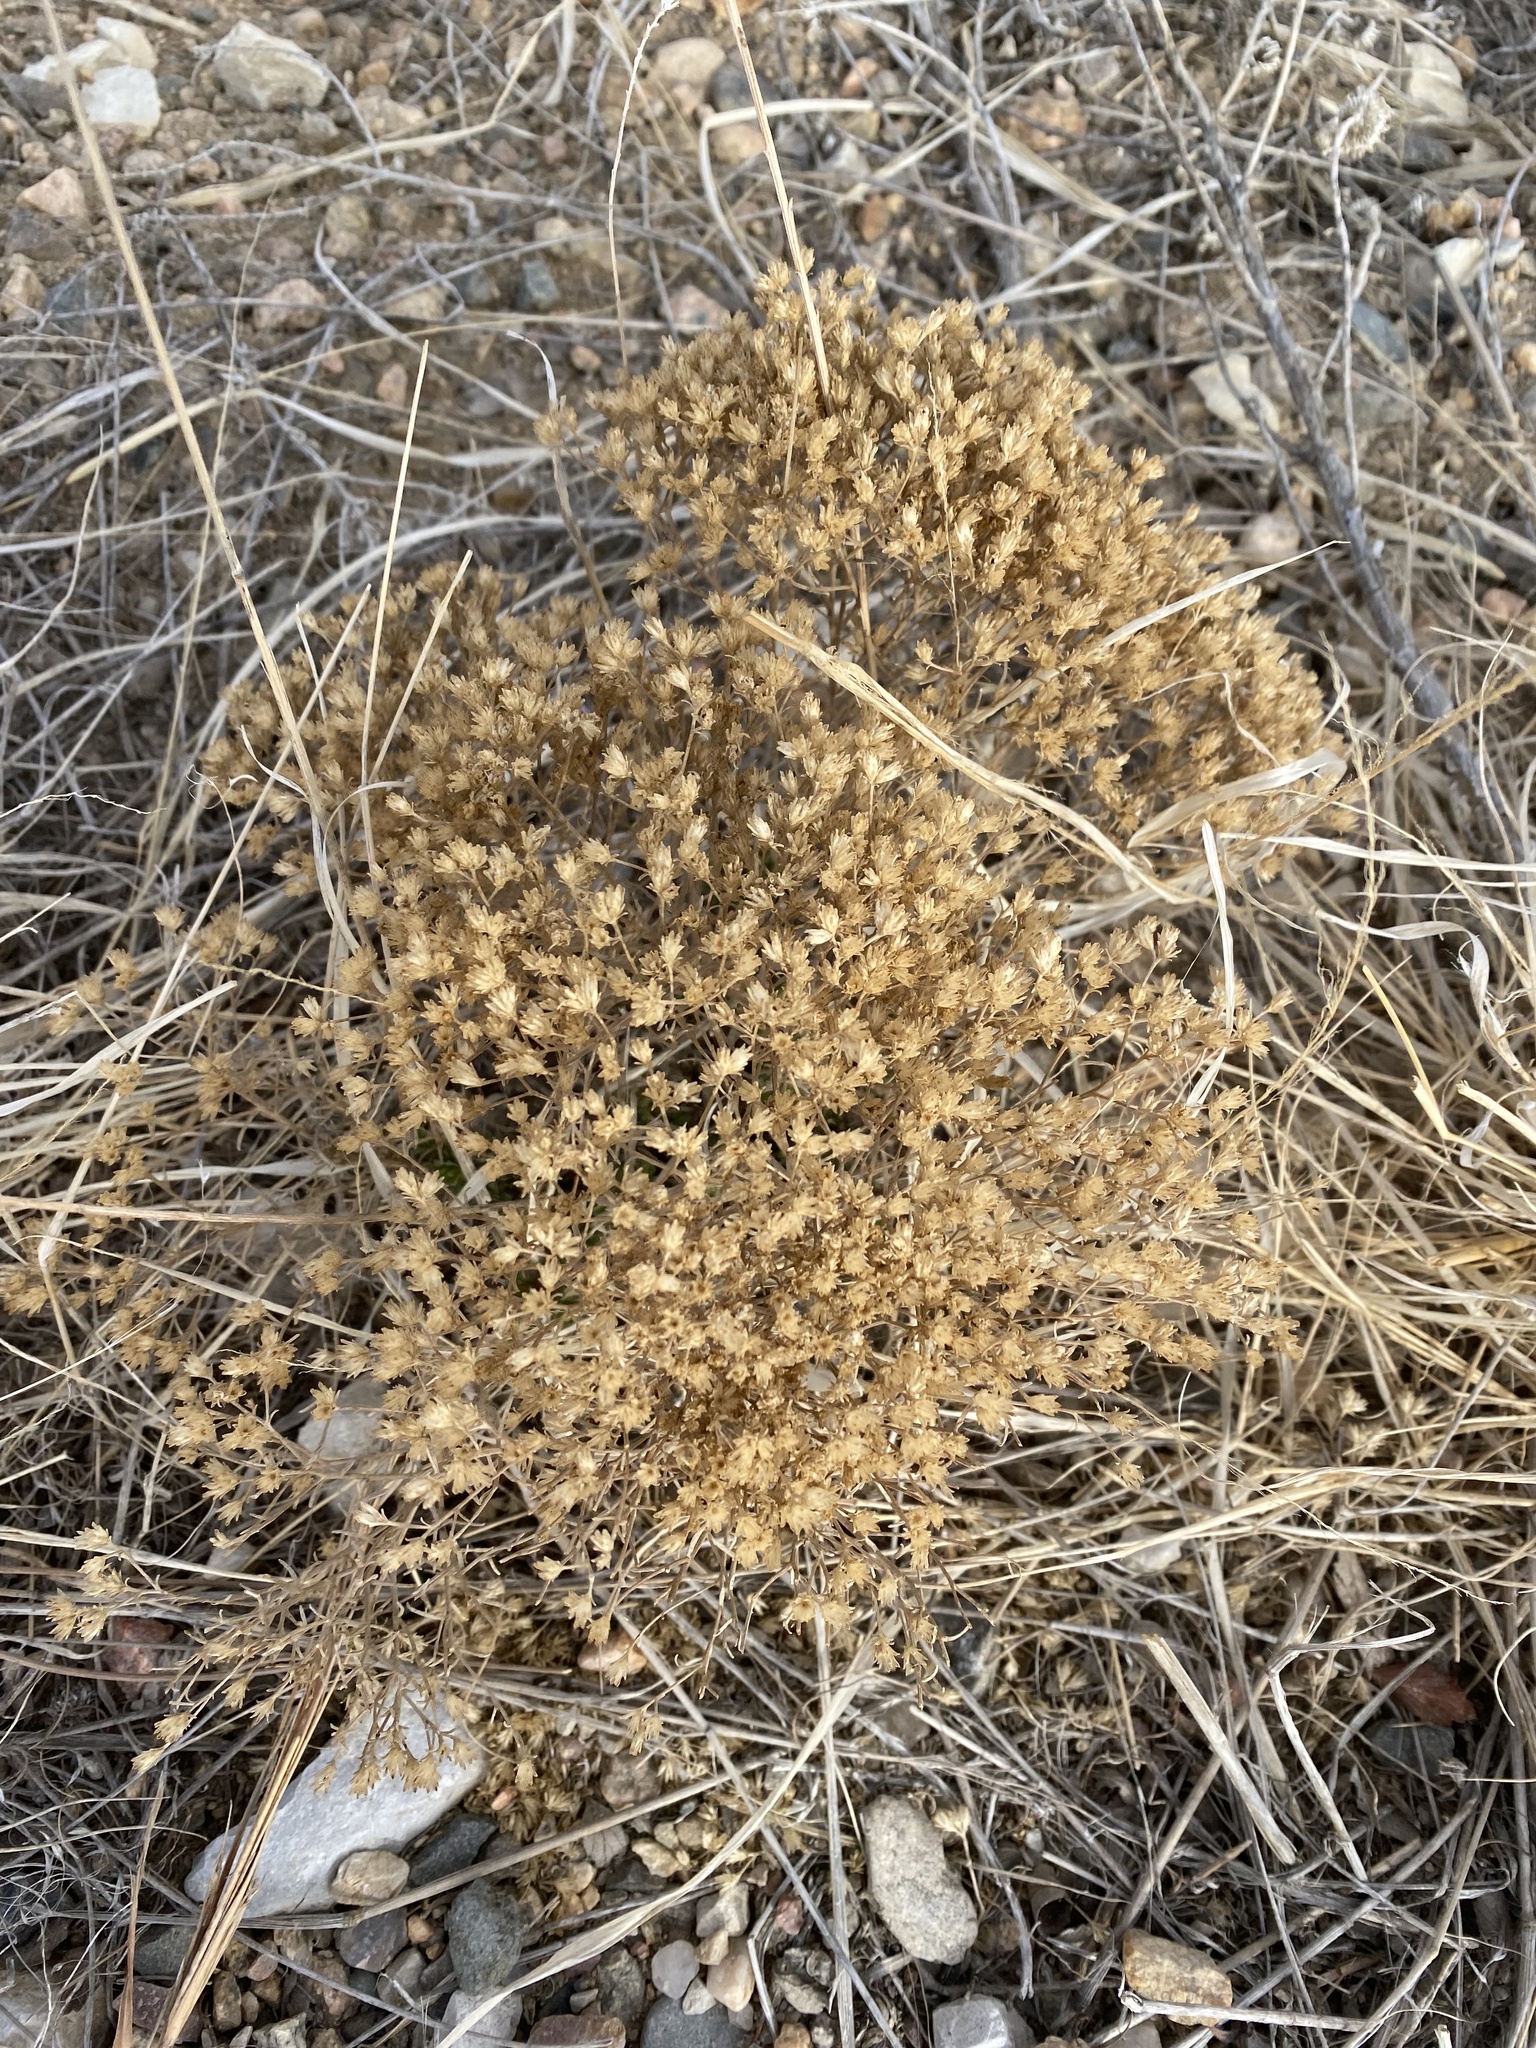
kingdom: Plantae
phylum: Tracheophyta
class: Magnoliopsida
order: Asterales
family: Asteraceae
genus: Gutierrezia
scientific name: Gutierrezia sarothrae
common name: Broom snakeweed
